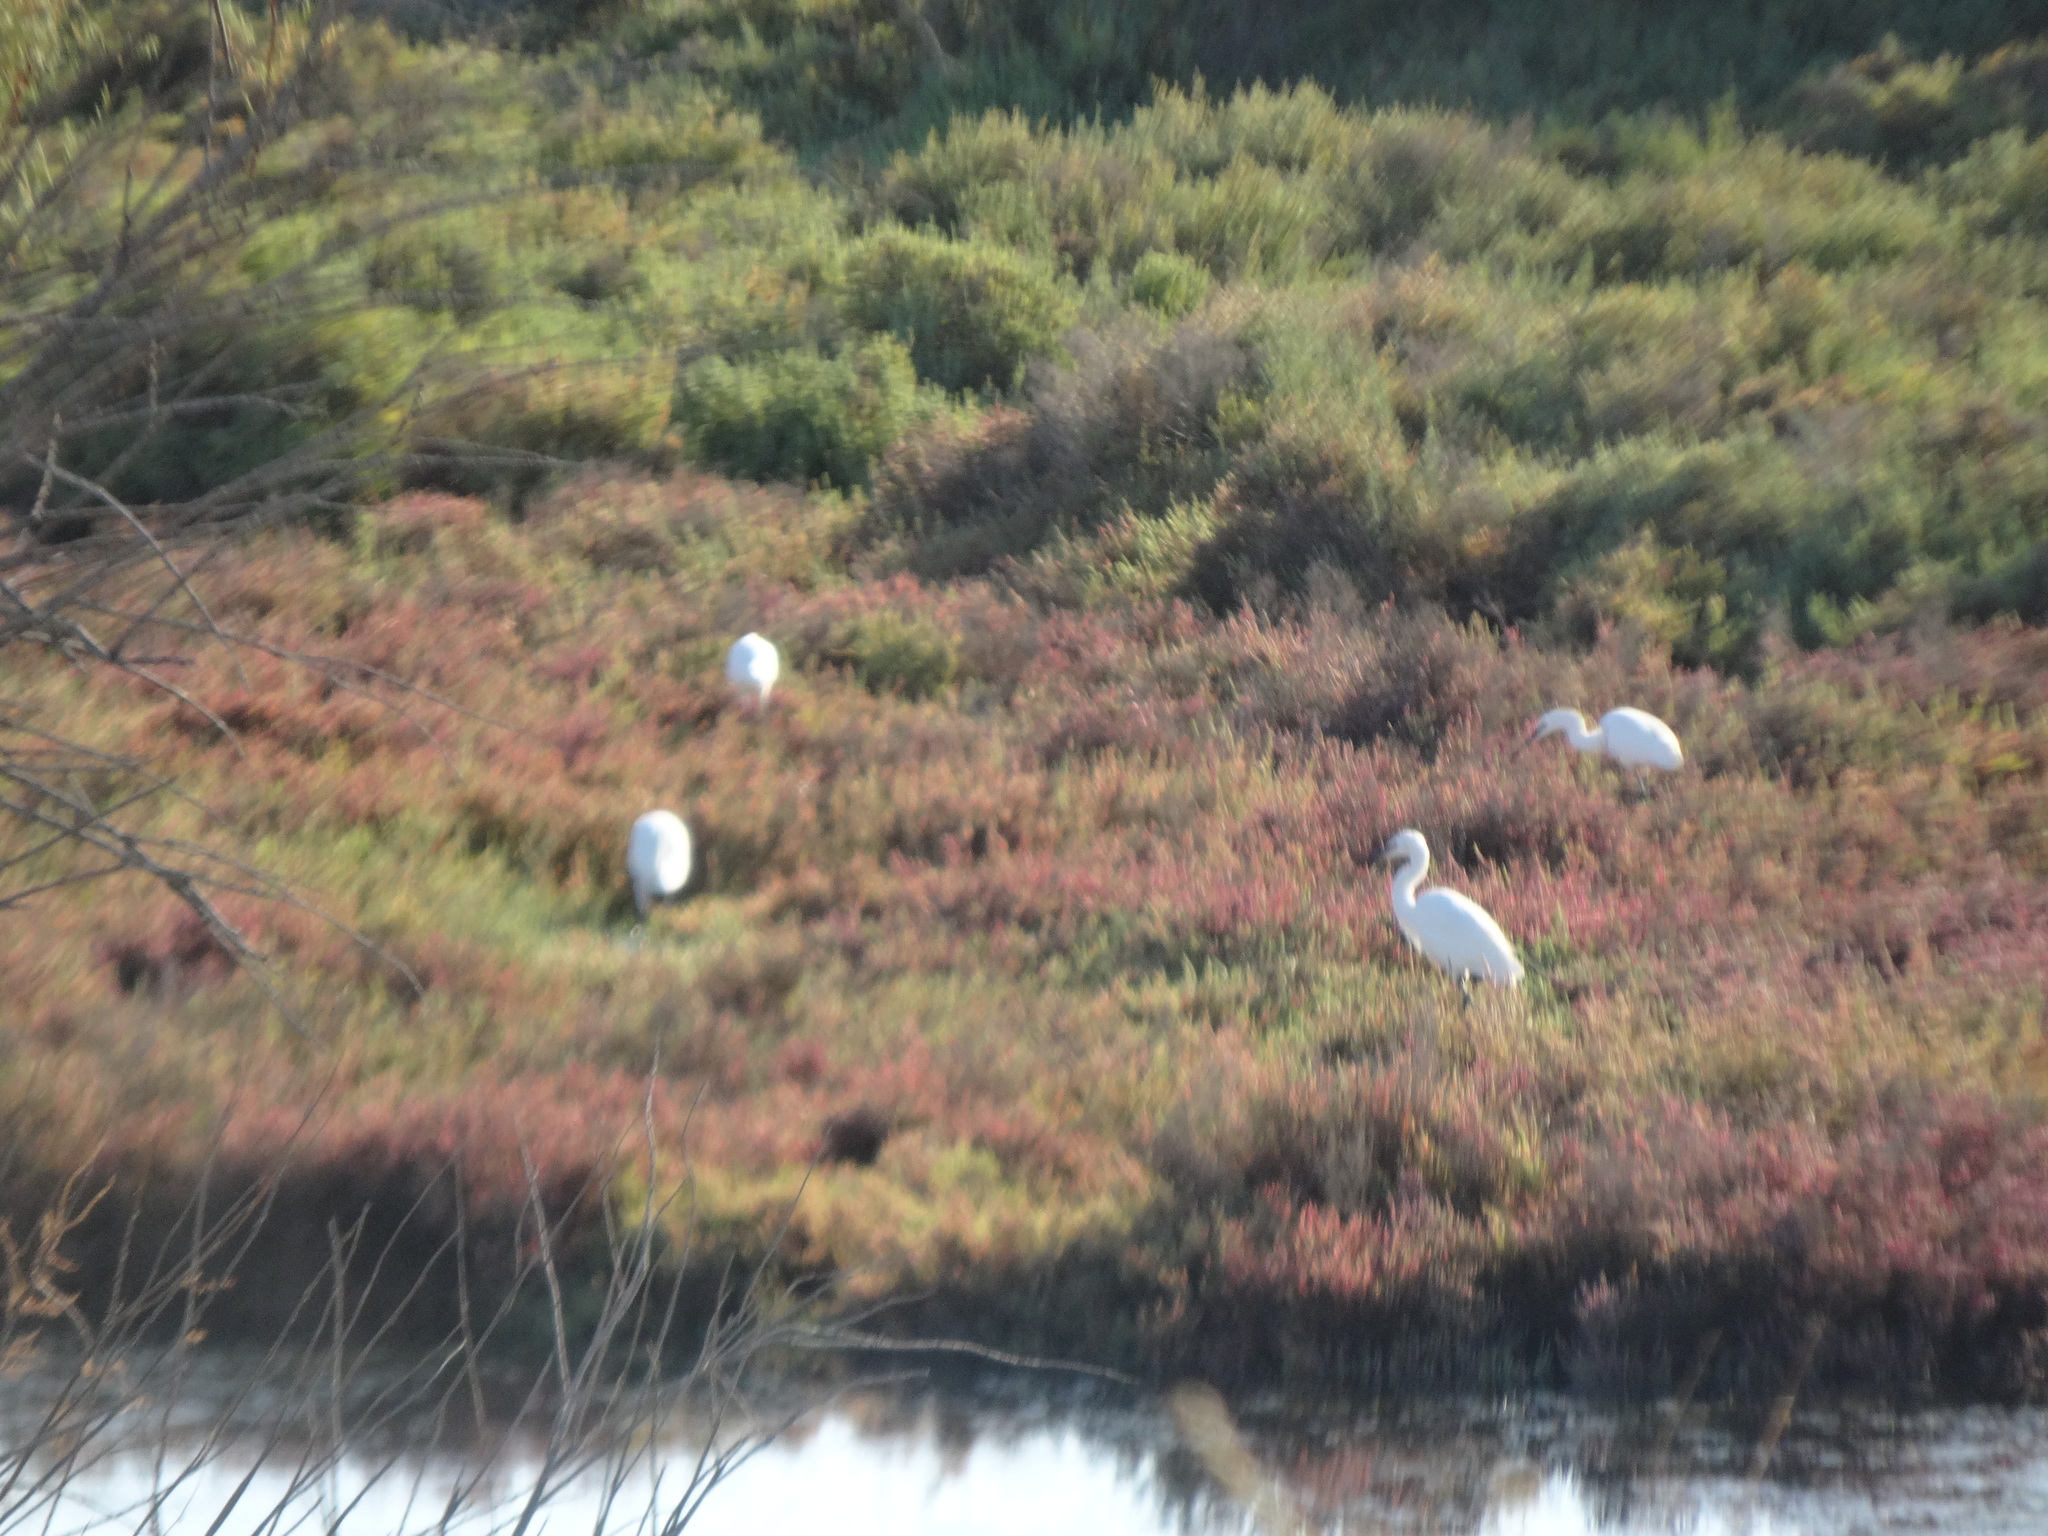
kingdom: Animalia
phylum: Chordata
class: Aves
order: Pelecaniformes
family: Ardeidae
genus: Egretta
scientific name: Egretta garzetta
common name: Little egret
